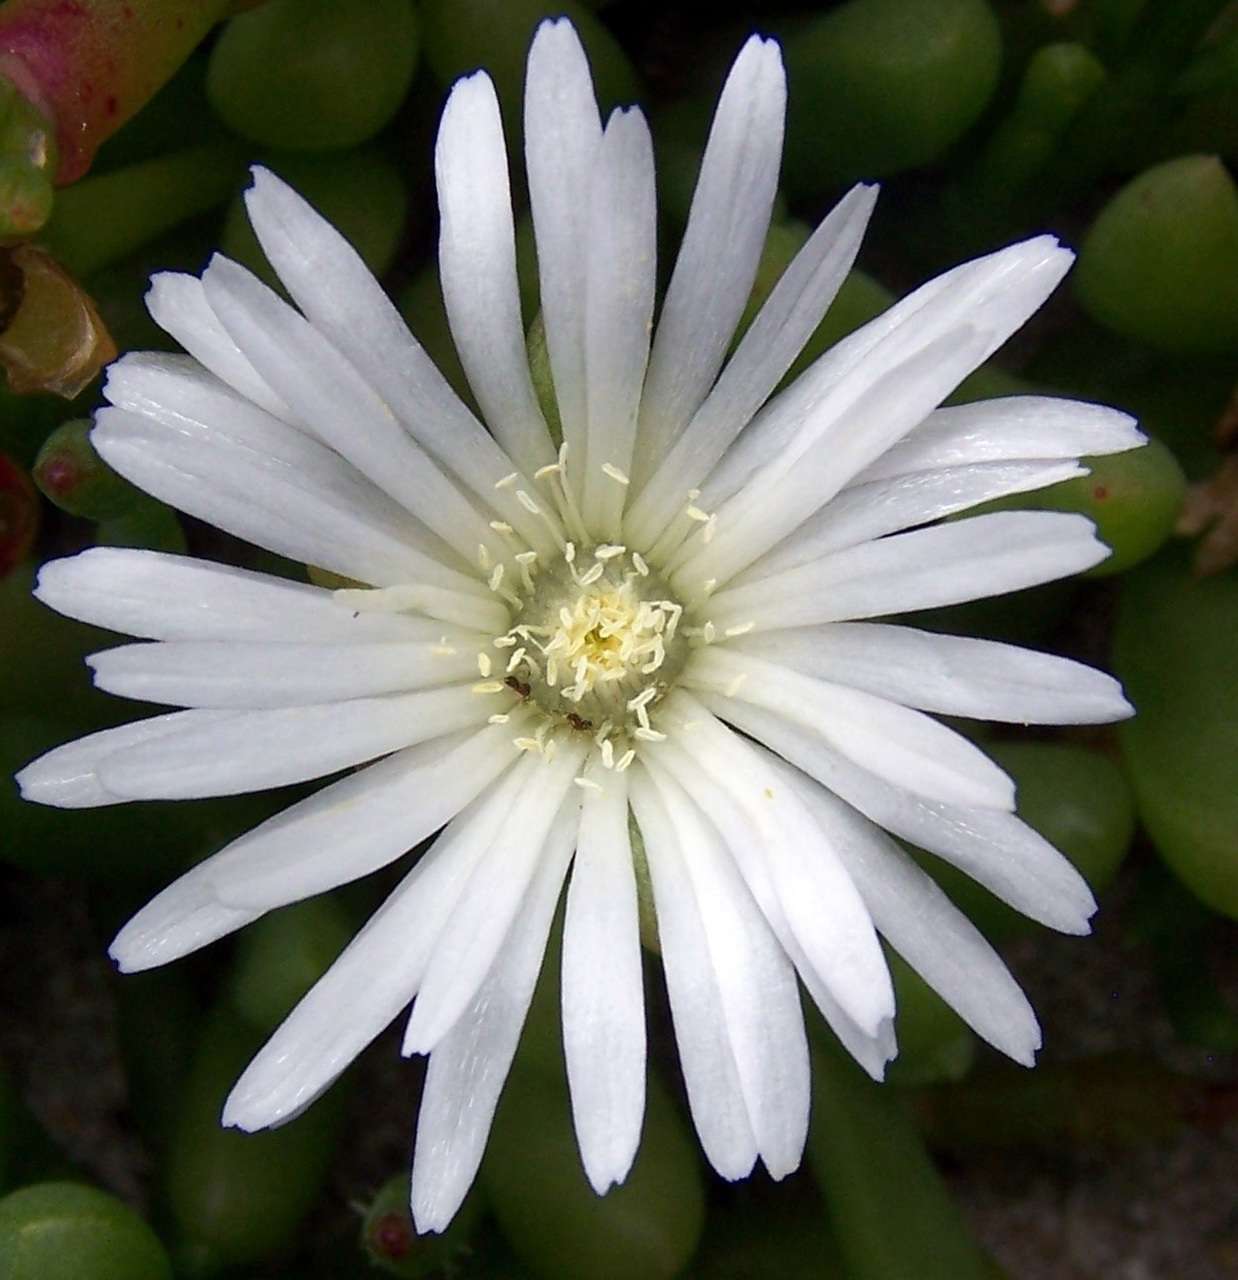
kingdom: Plantae
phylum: Tracheophyta
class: Magnoliopsida
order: Caryophyllales
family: Aizoaceae
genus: Disphyma
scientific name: Disphyma clavellatum
